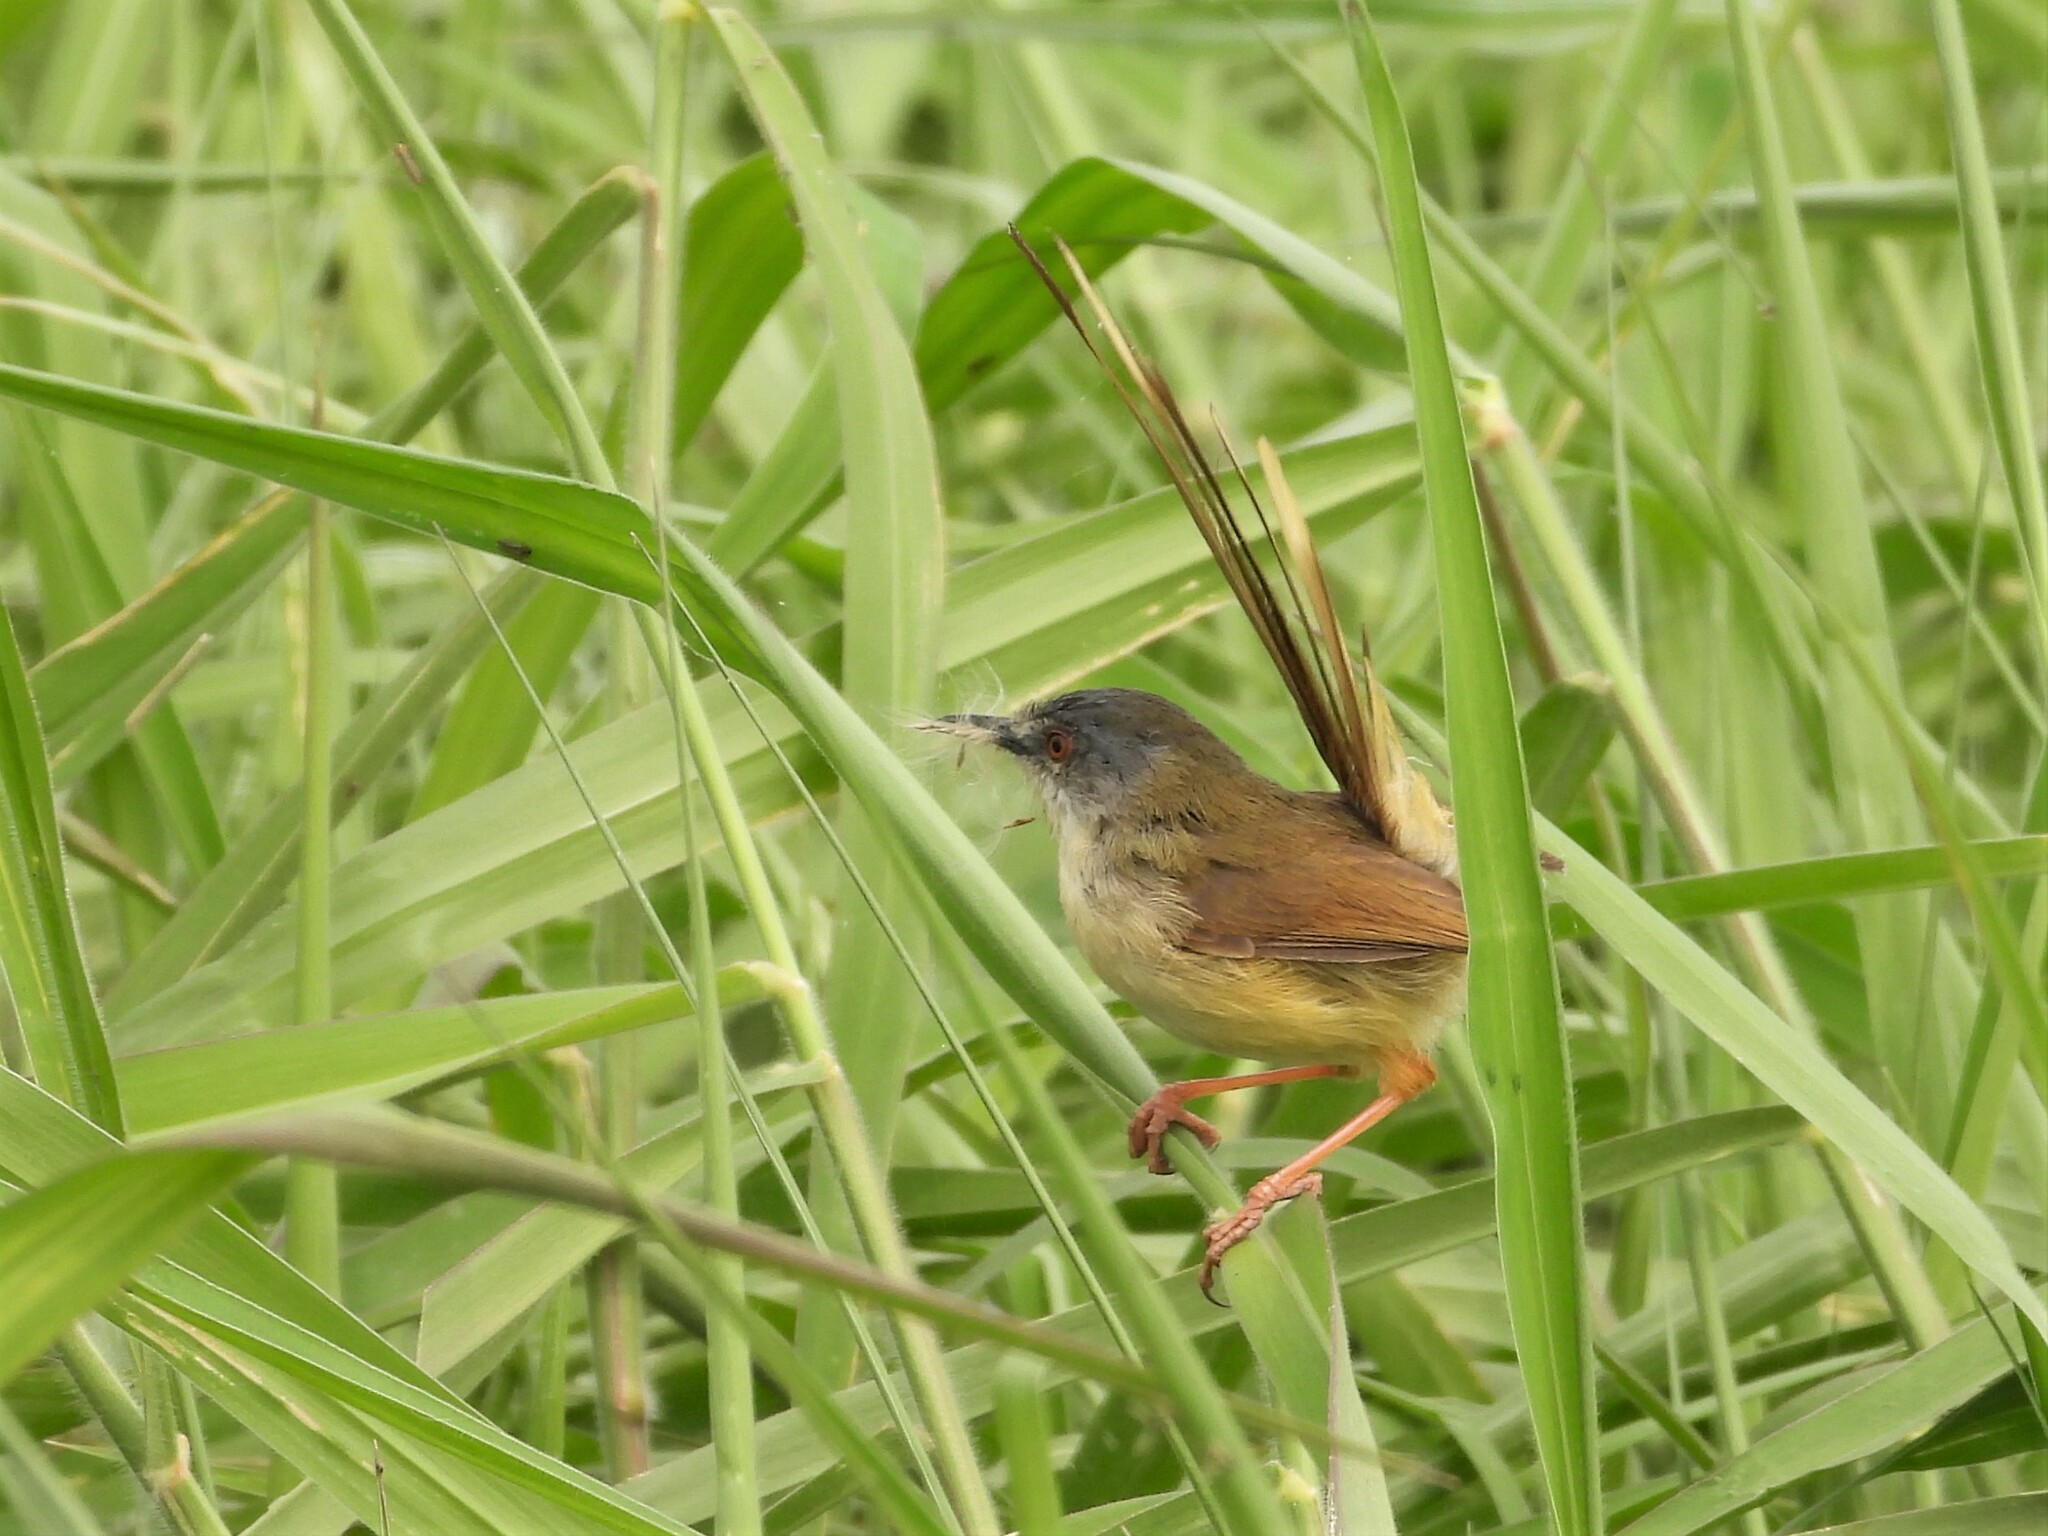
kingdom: Animalia
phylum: Chordata
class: Aves
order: Passeriformes
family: Cisticolidae
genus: Prinia
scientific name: Prinia flaviventris
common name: Yellow-bellied prinia
